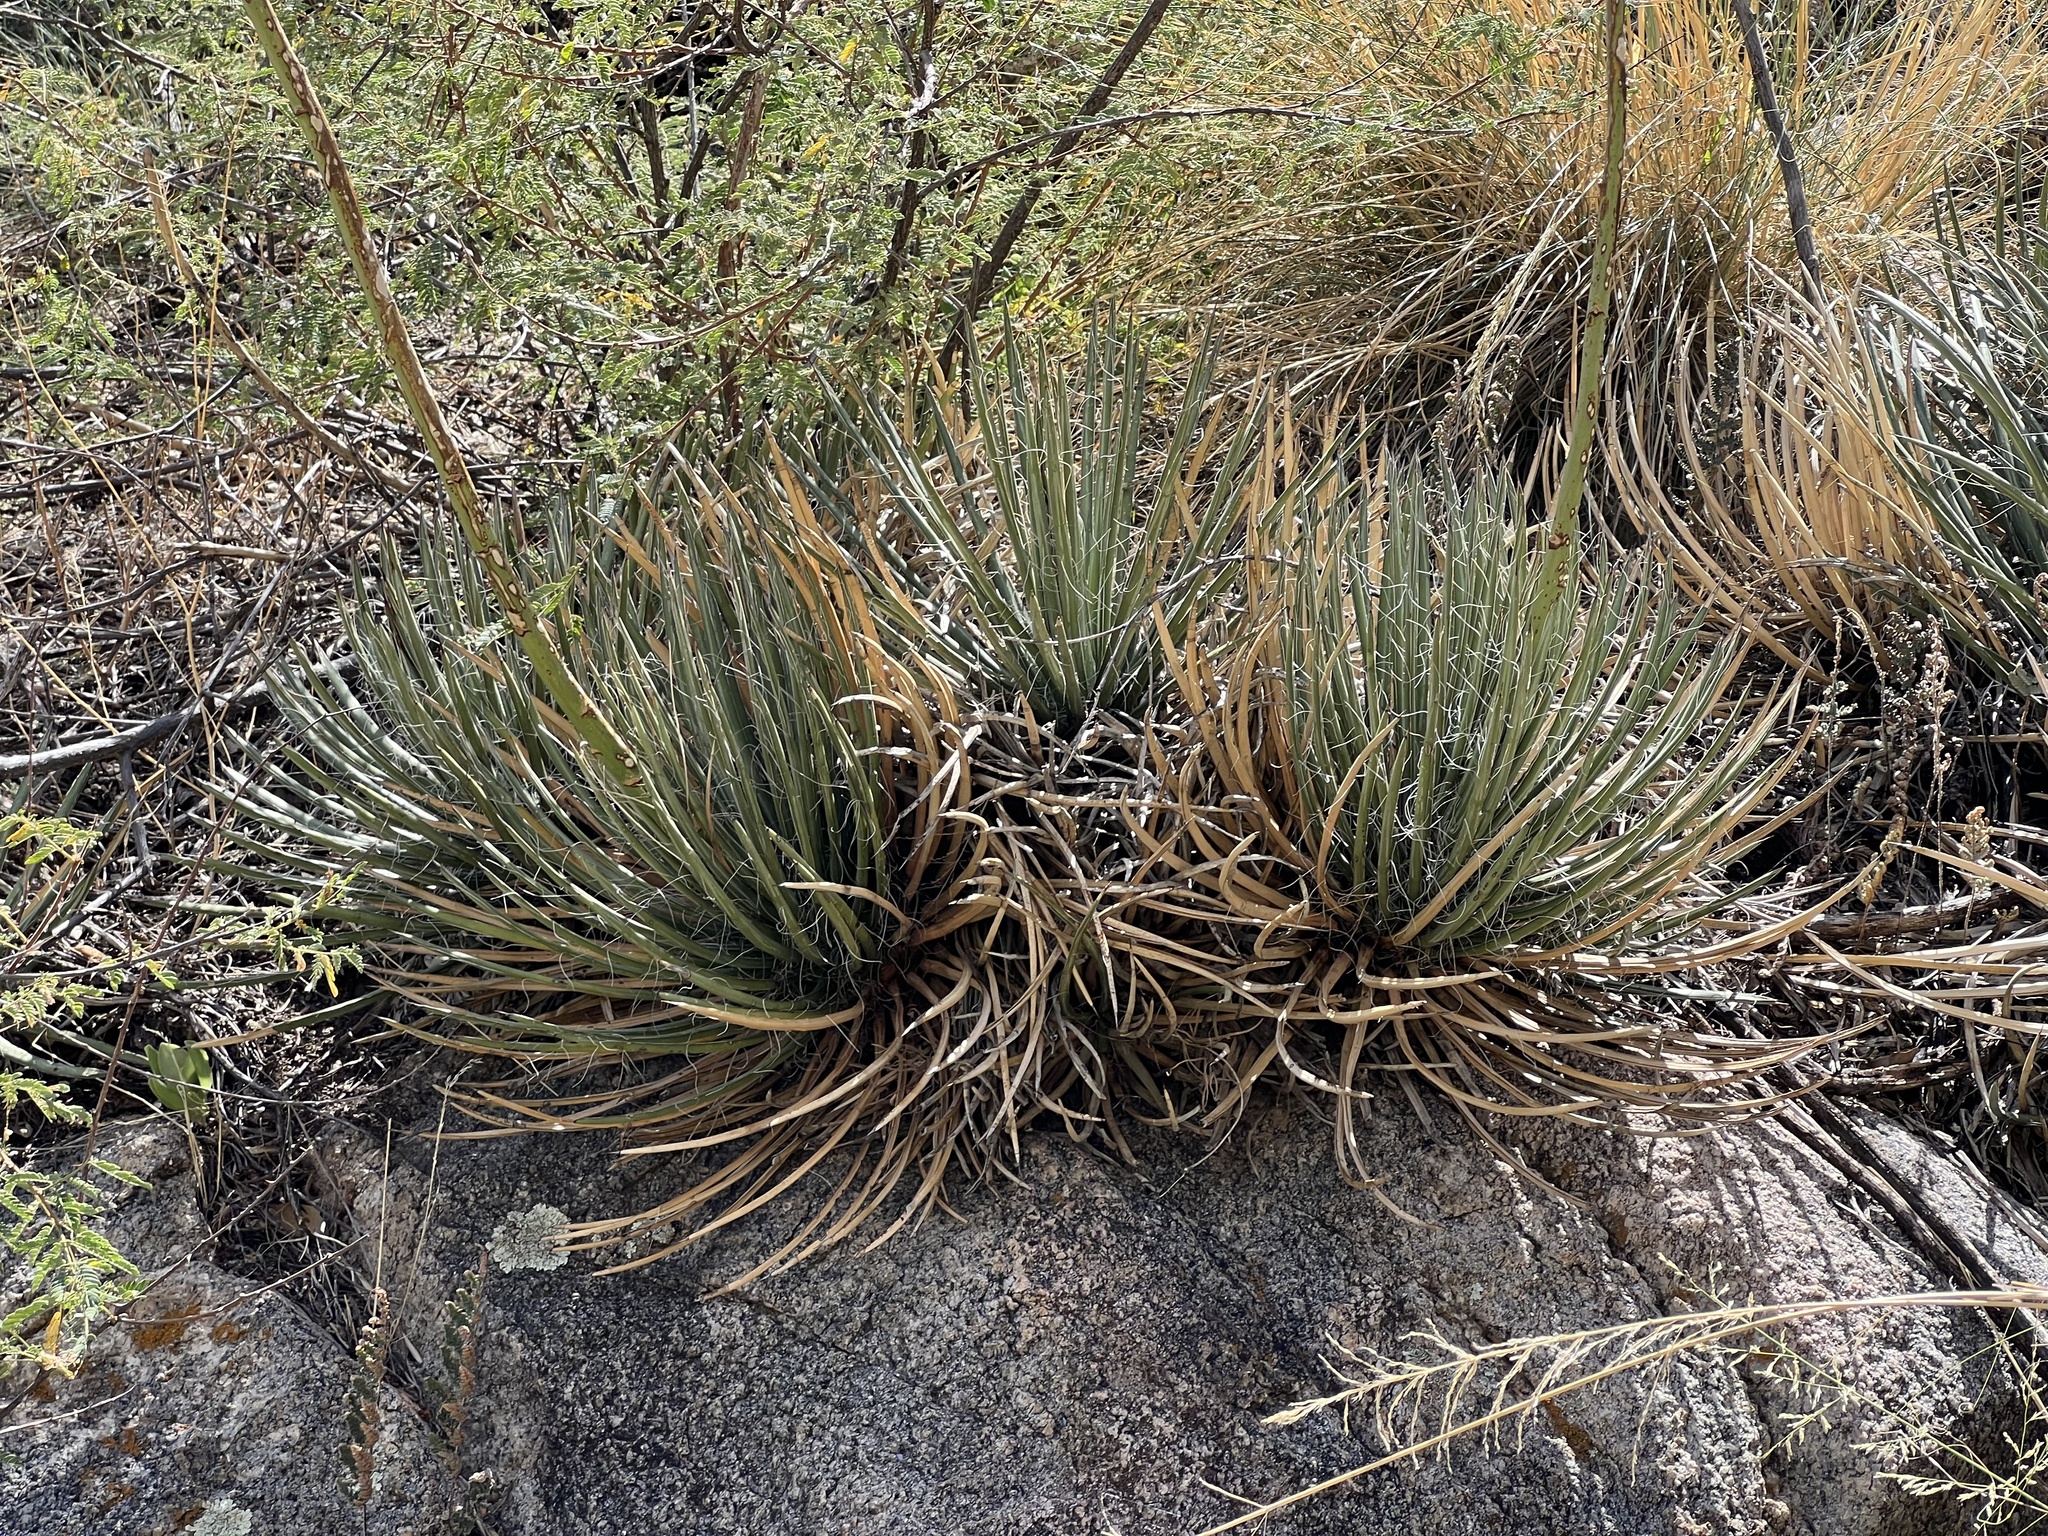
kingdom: Plantae
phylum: Tracheophyta
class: Liliopsida
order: Asparagales
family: Asparagaceae
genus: Agave
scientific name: Agave schottii
